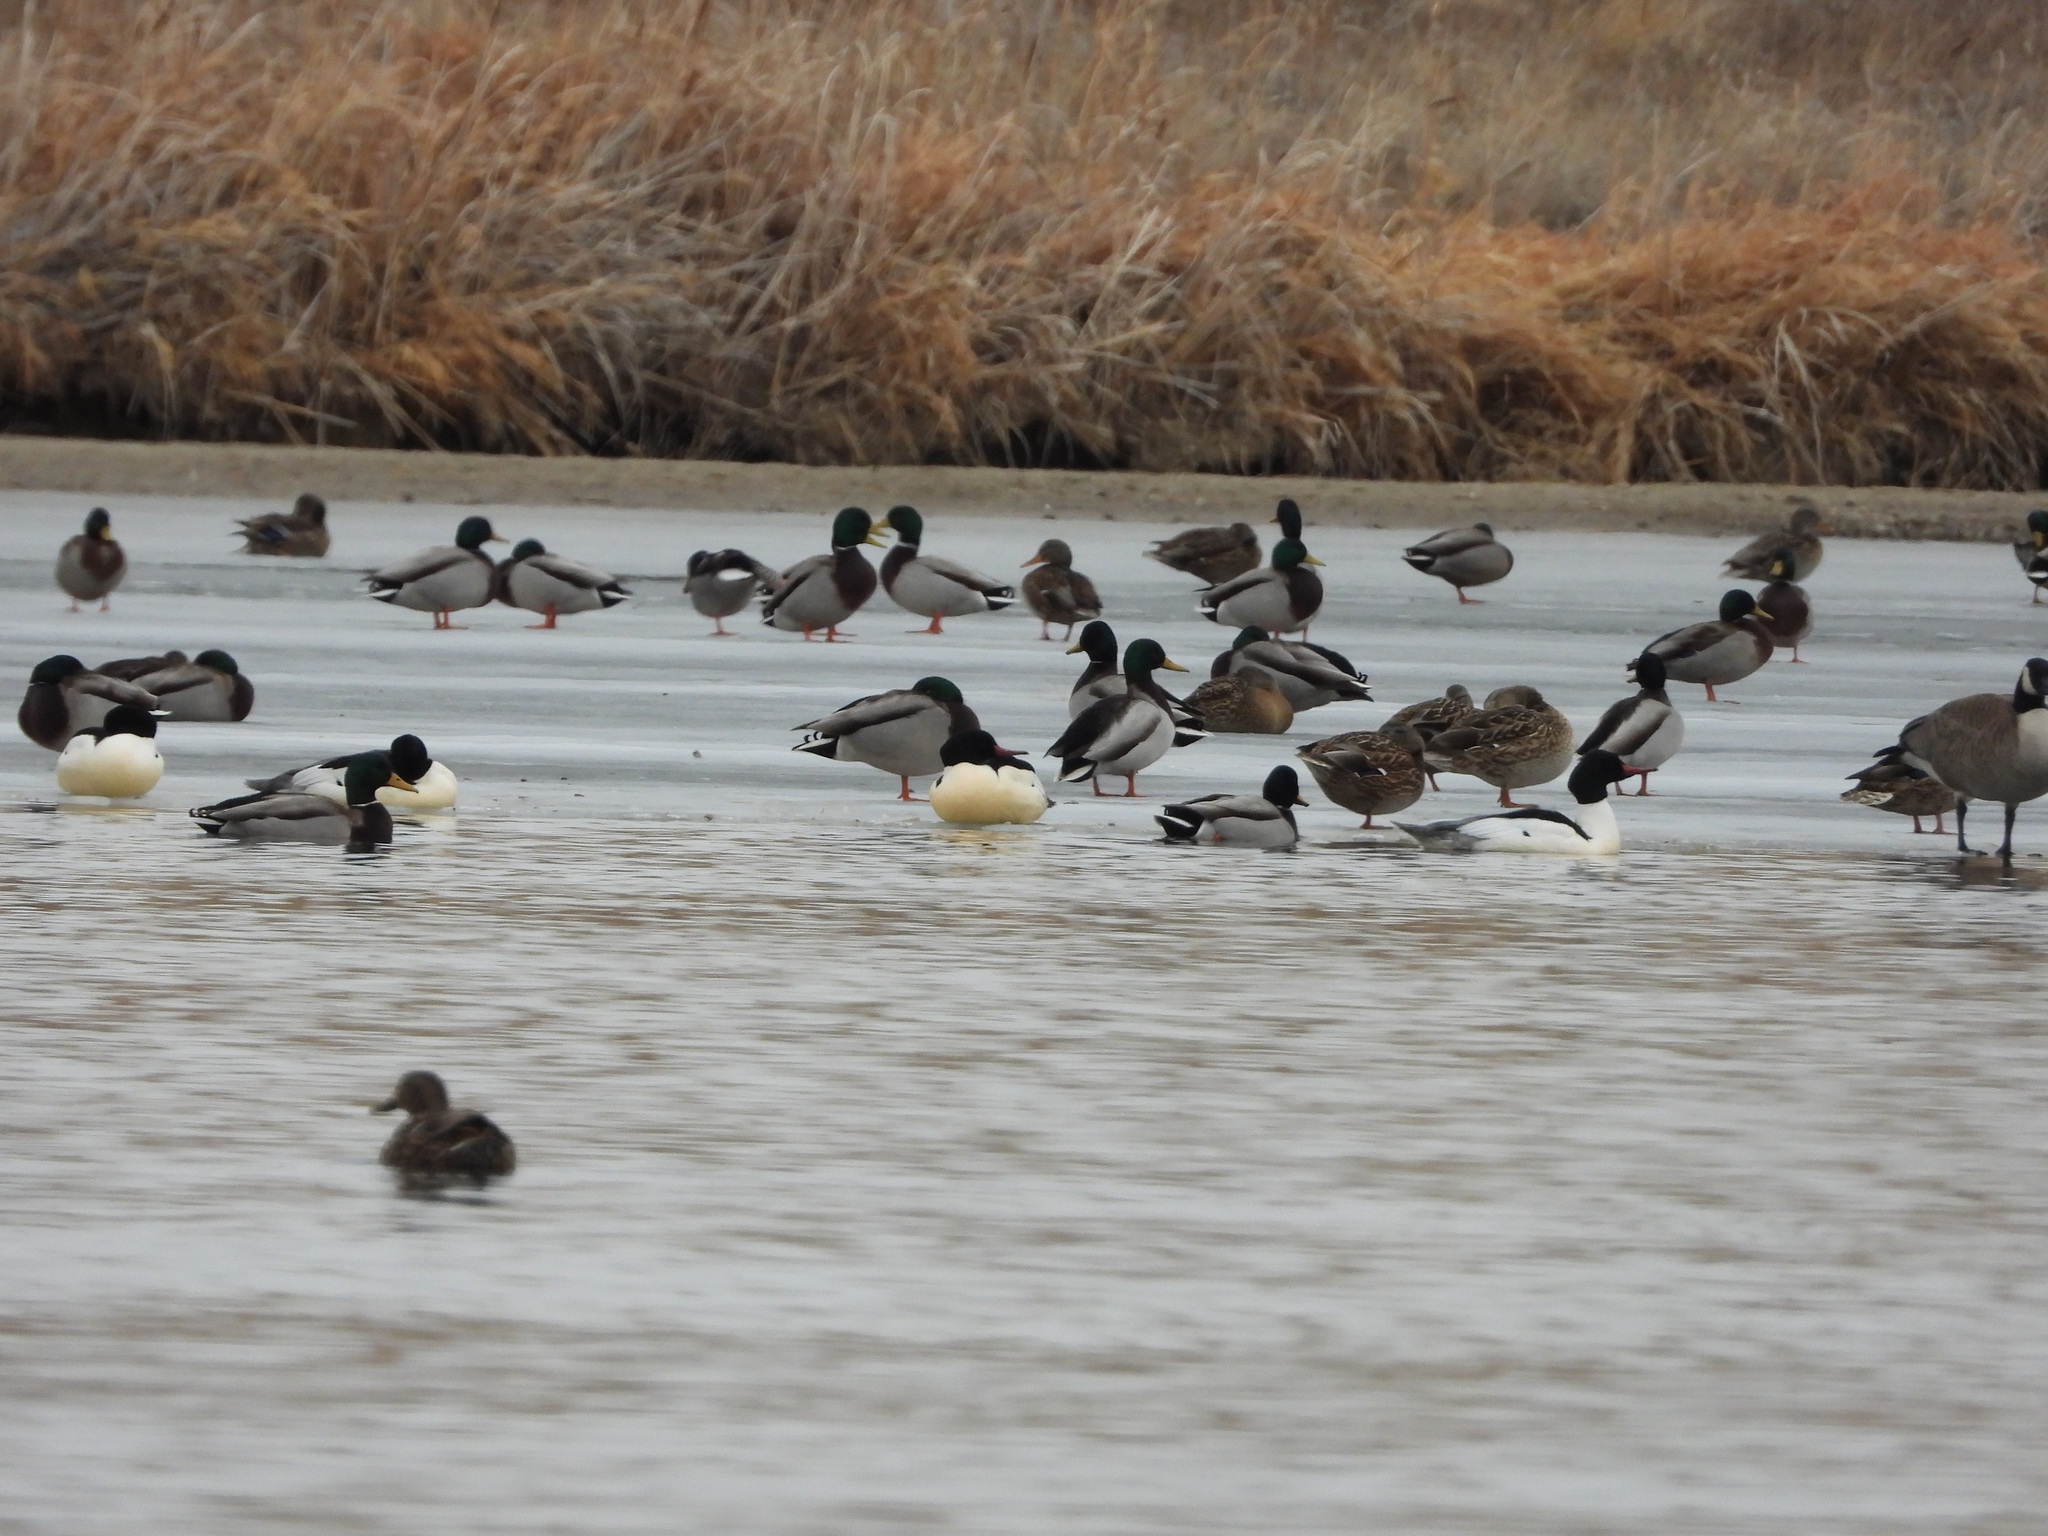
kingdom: Animalia
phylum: Chordata
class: Aves
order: Anseriformes
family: Anatidae
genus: Mergus
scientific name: Mergus merganser
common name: Common merganser
